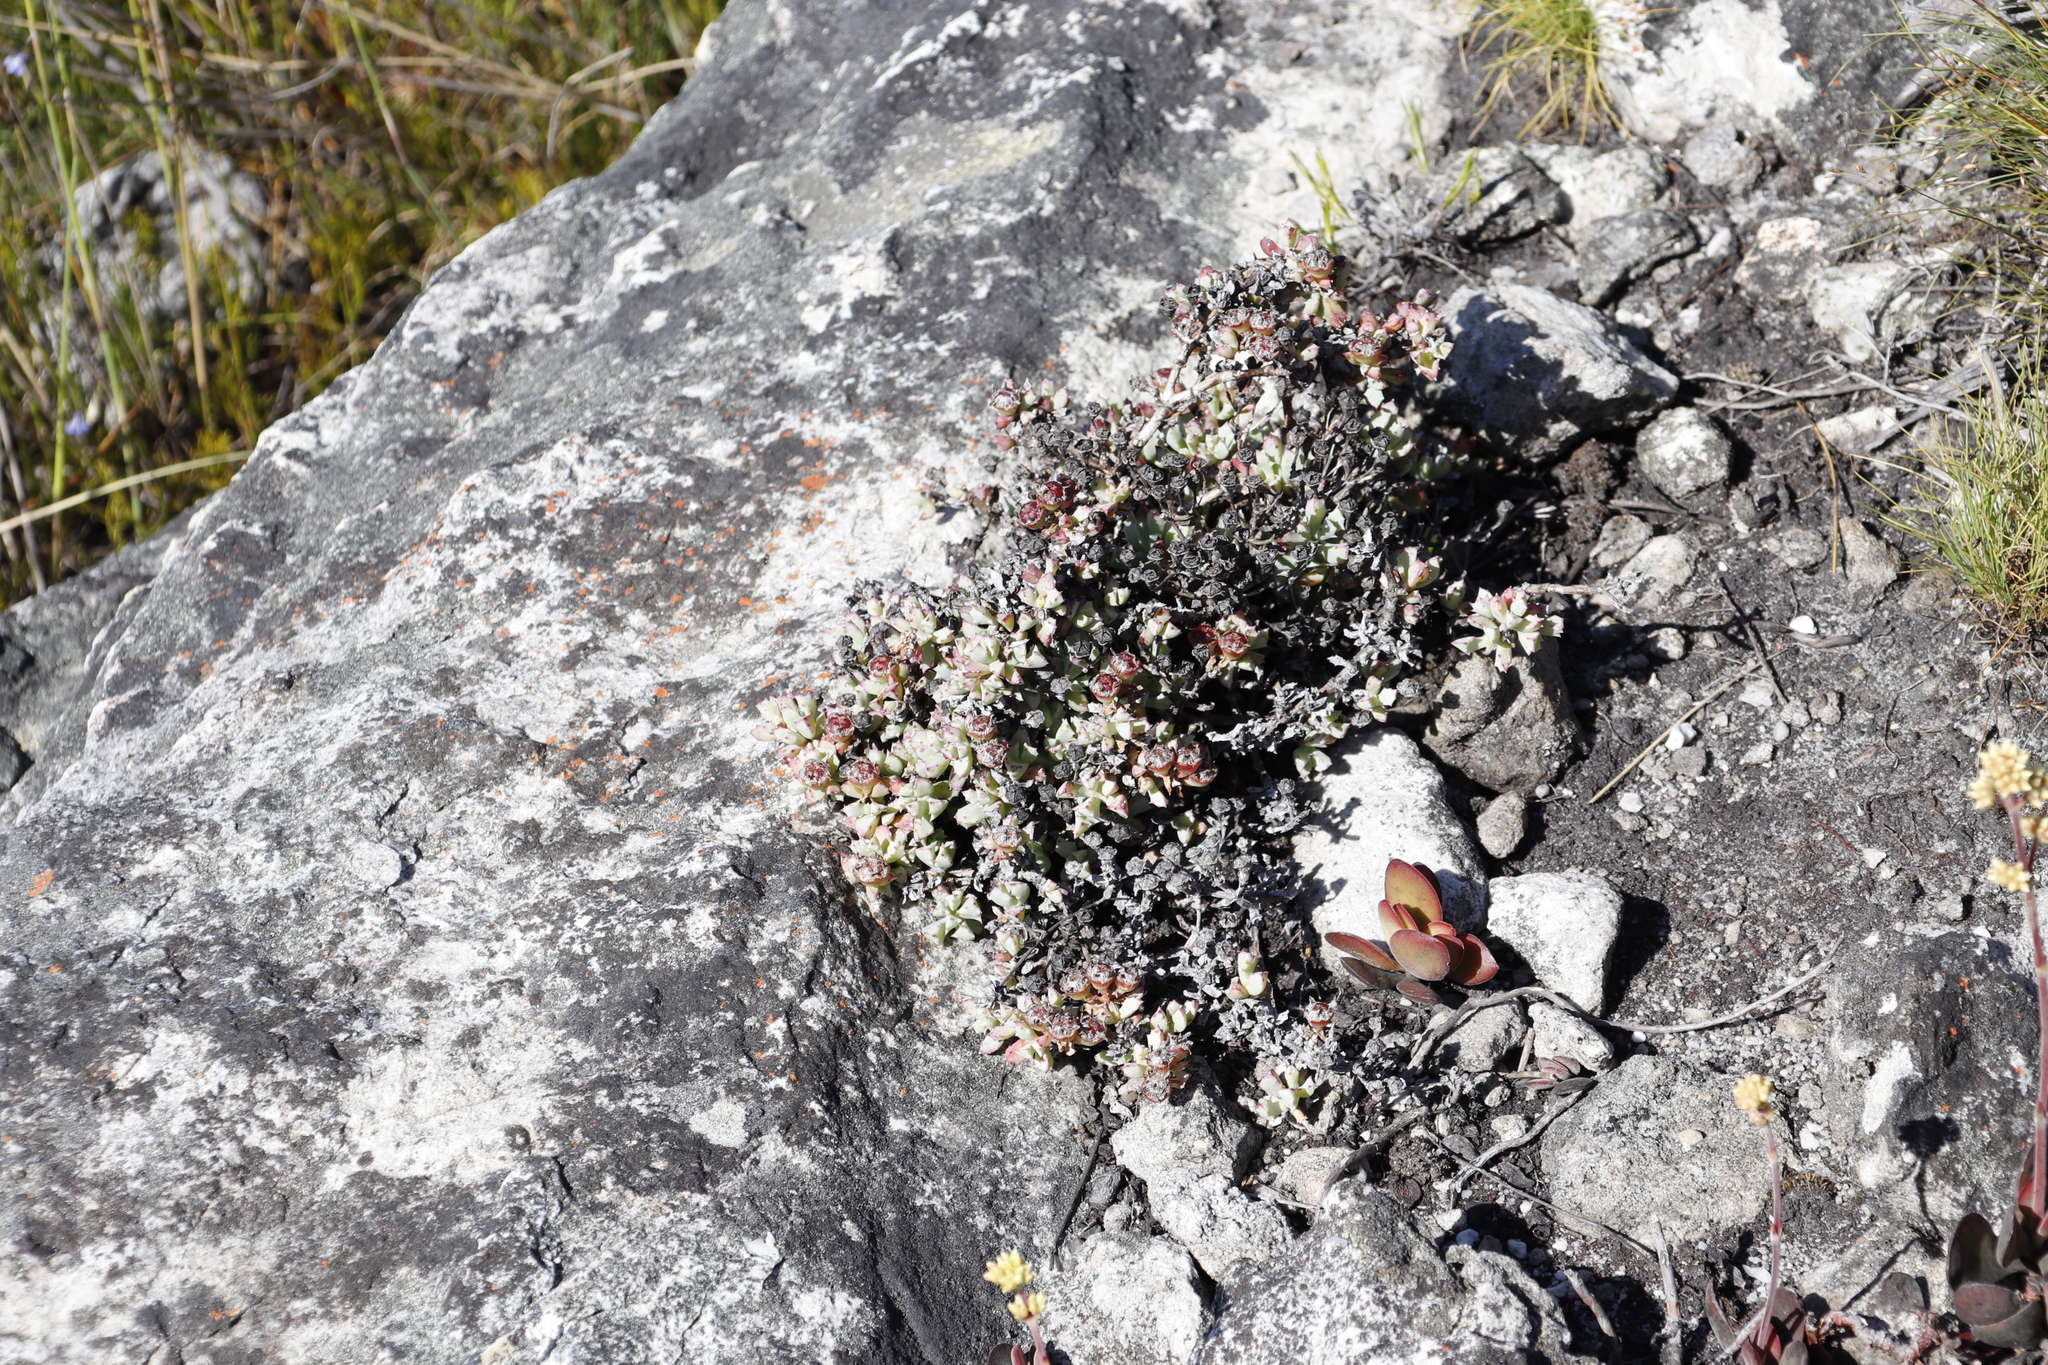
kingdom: Plantae
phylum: Tracheophyta
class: Magnoliopsida
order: Caryophyllales
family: Aizoaceae
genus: Oscularia
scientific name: Oscularia deltoides
